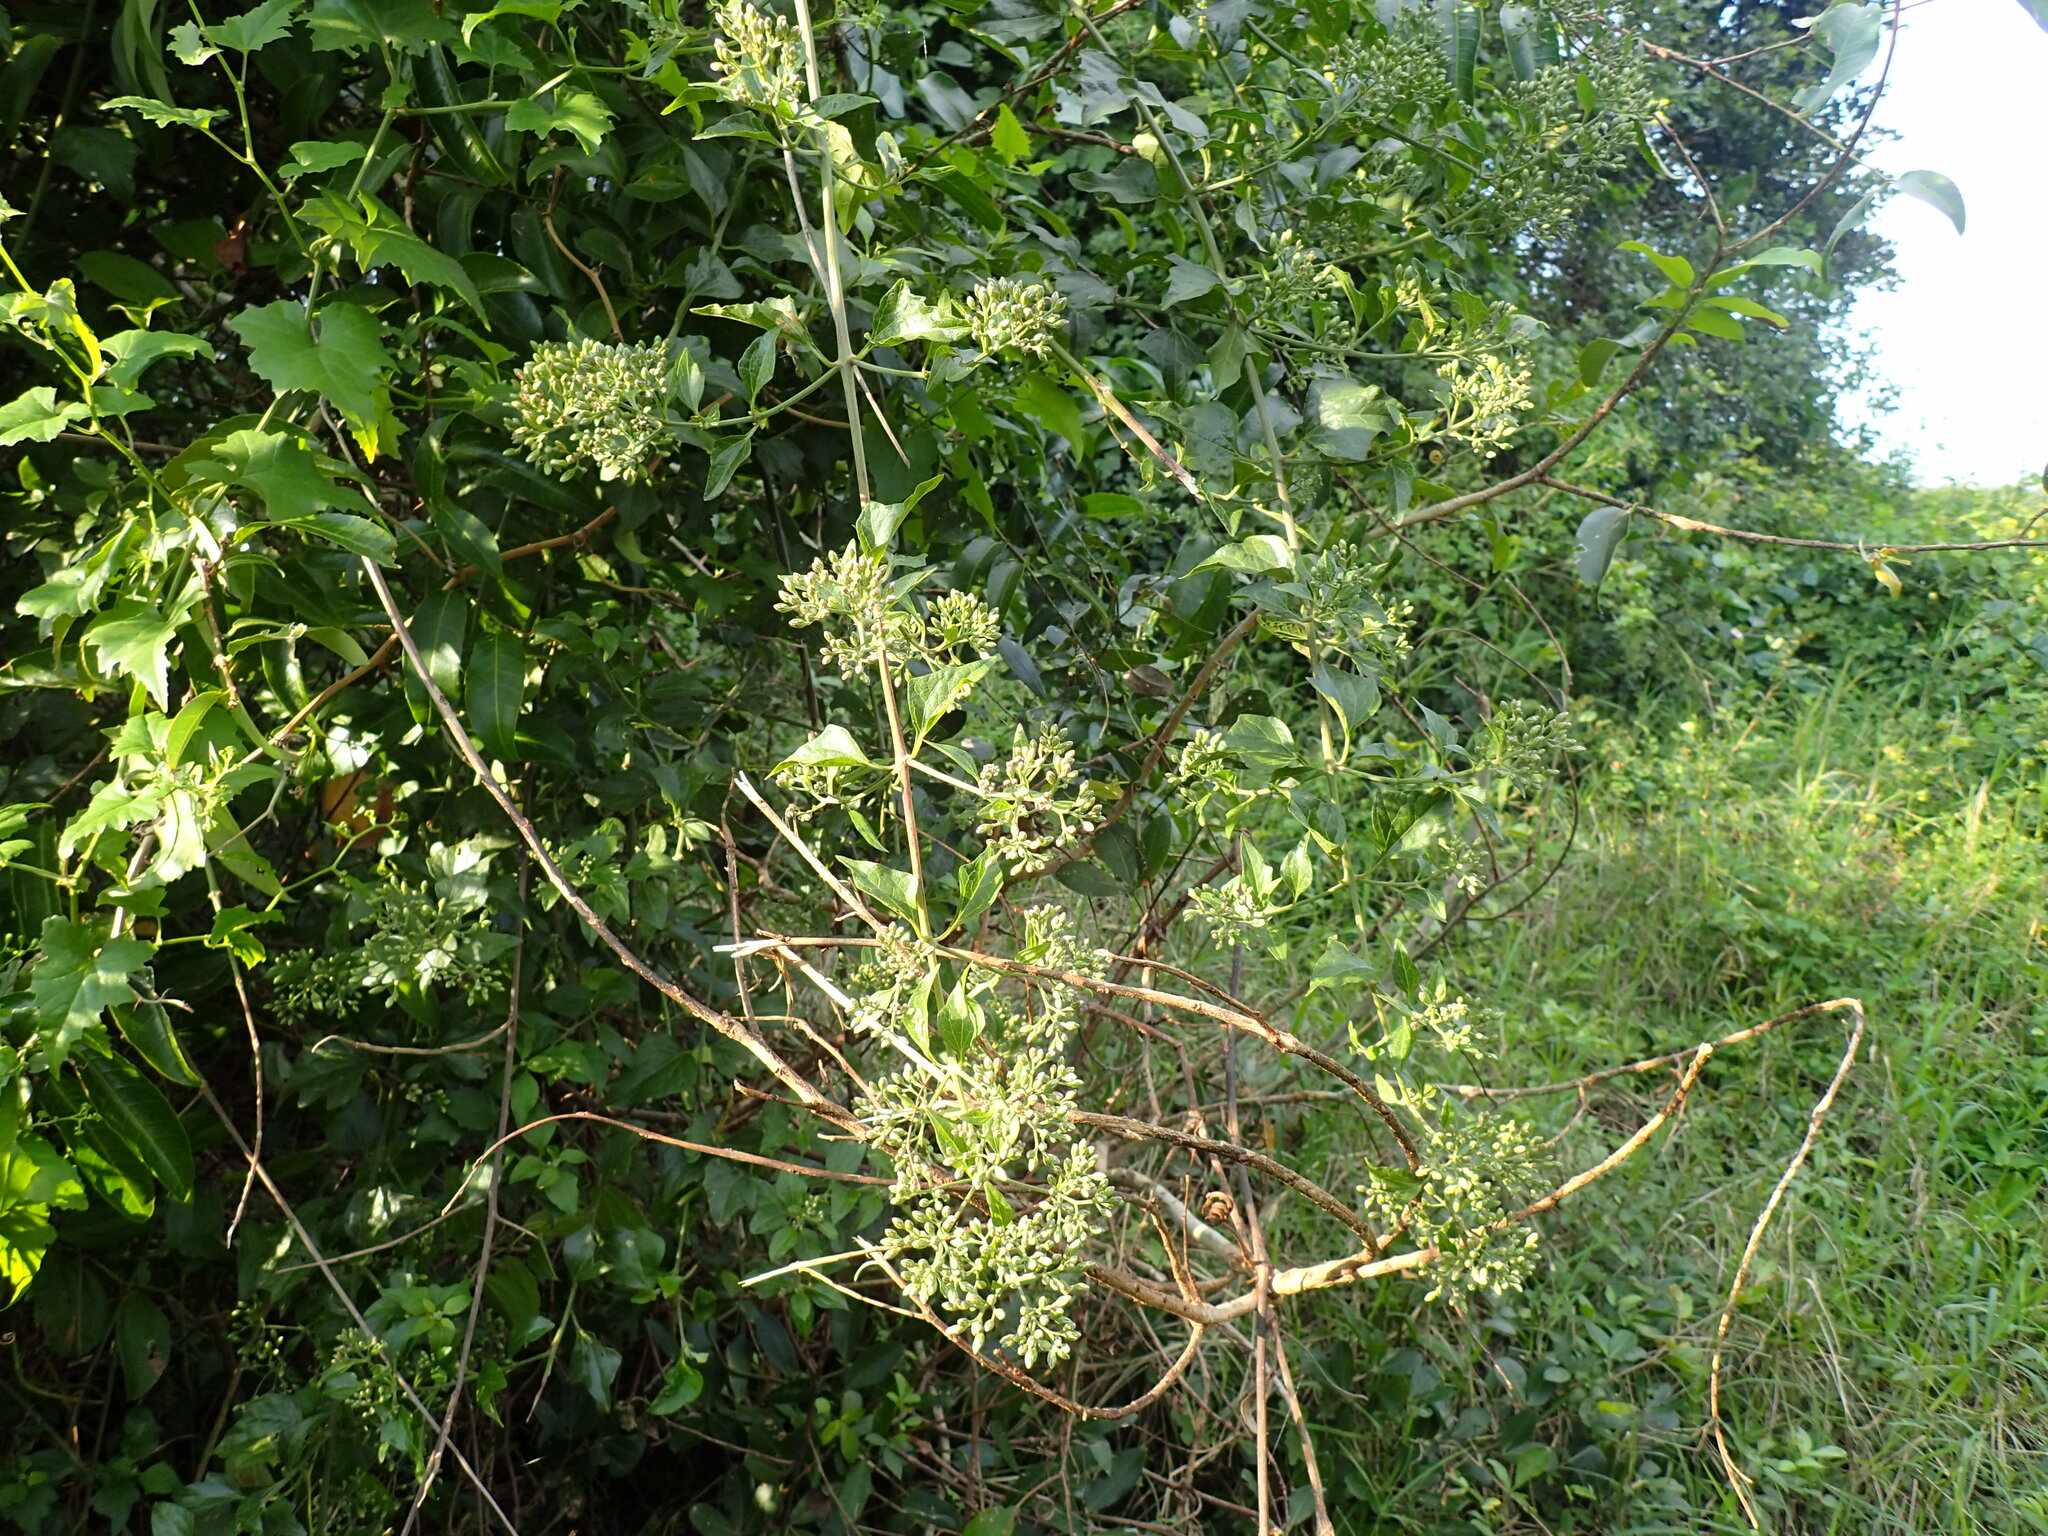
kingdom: Plantae
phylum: Tracheophyta
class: Magnoliopsida
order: Asterales
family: Asteraceae
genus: Distephanus
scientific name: Distephanus anisochaetoides
